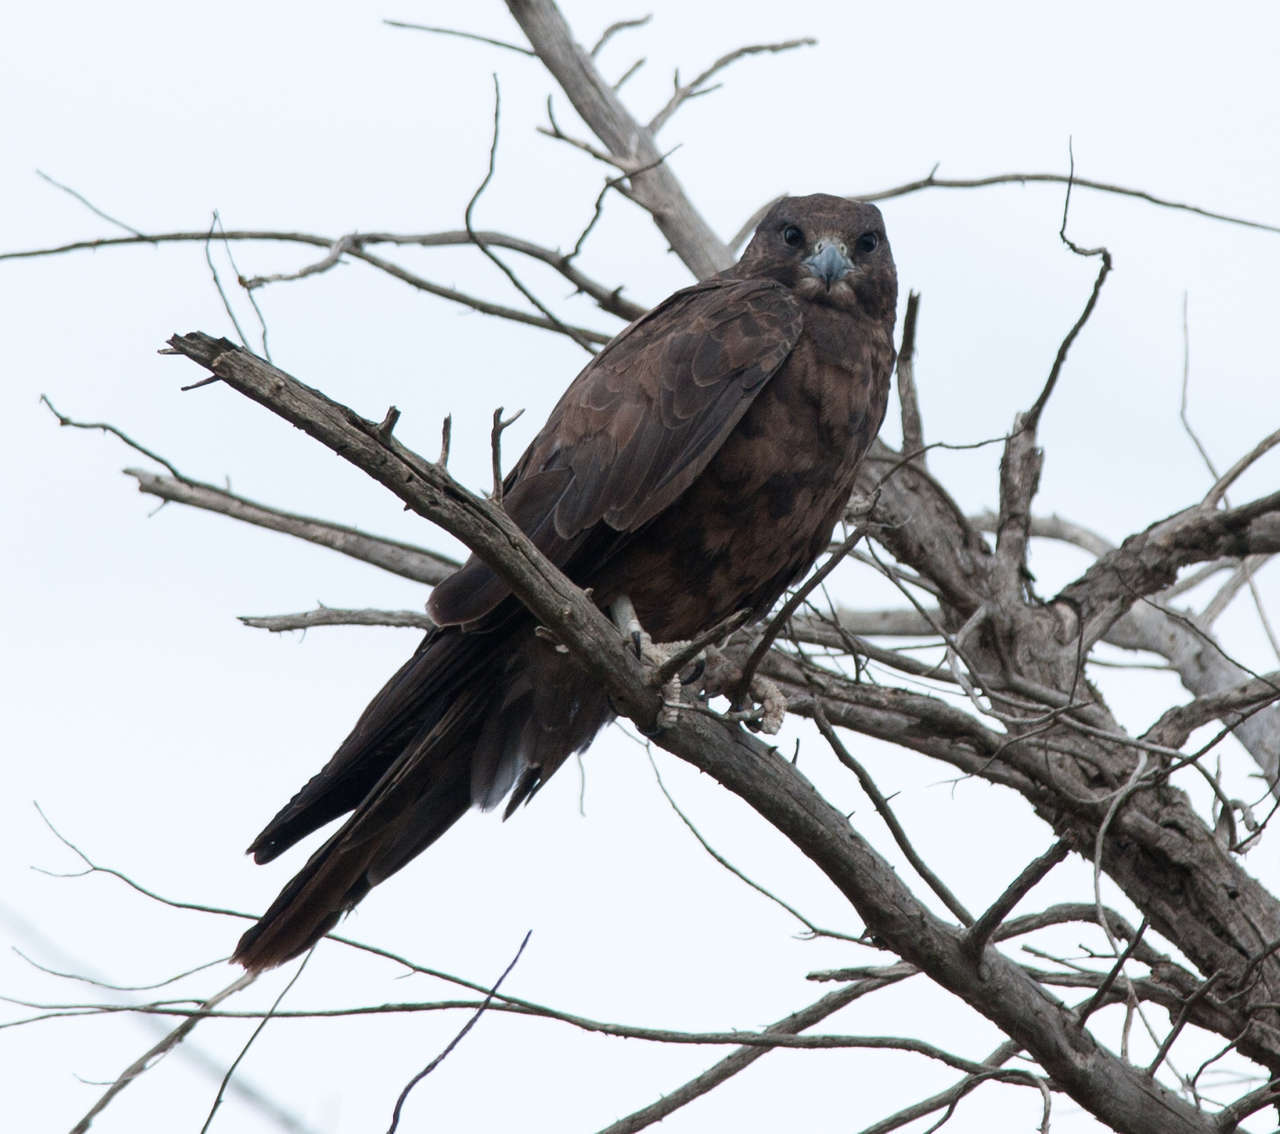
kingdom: Animalia
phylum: Chordata
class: Aves
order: Falconiformes
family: Falconidae
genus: Falco
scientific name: Falco subniger
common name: Black falcon
